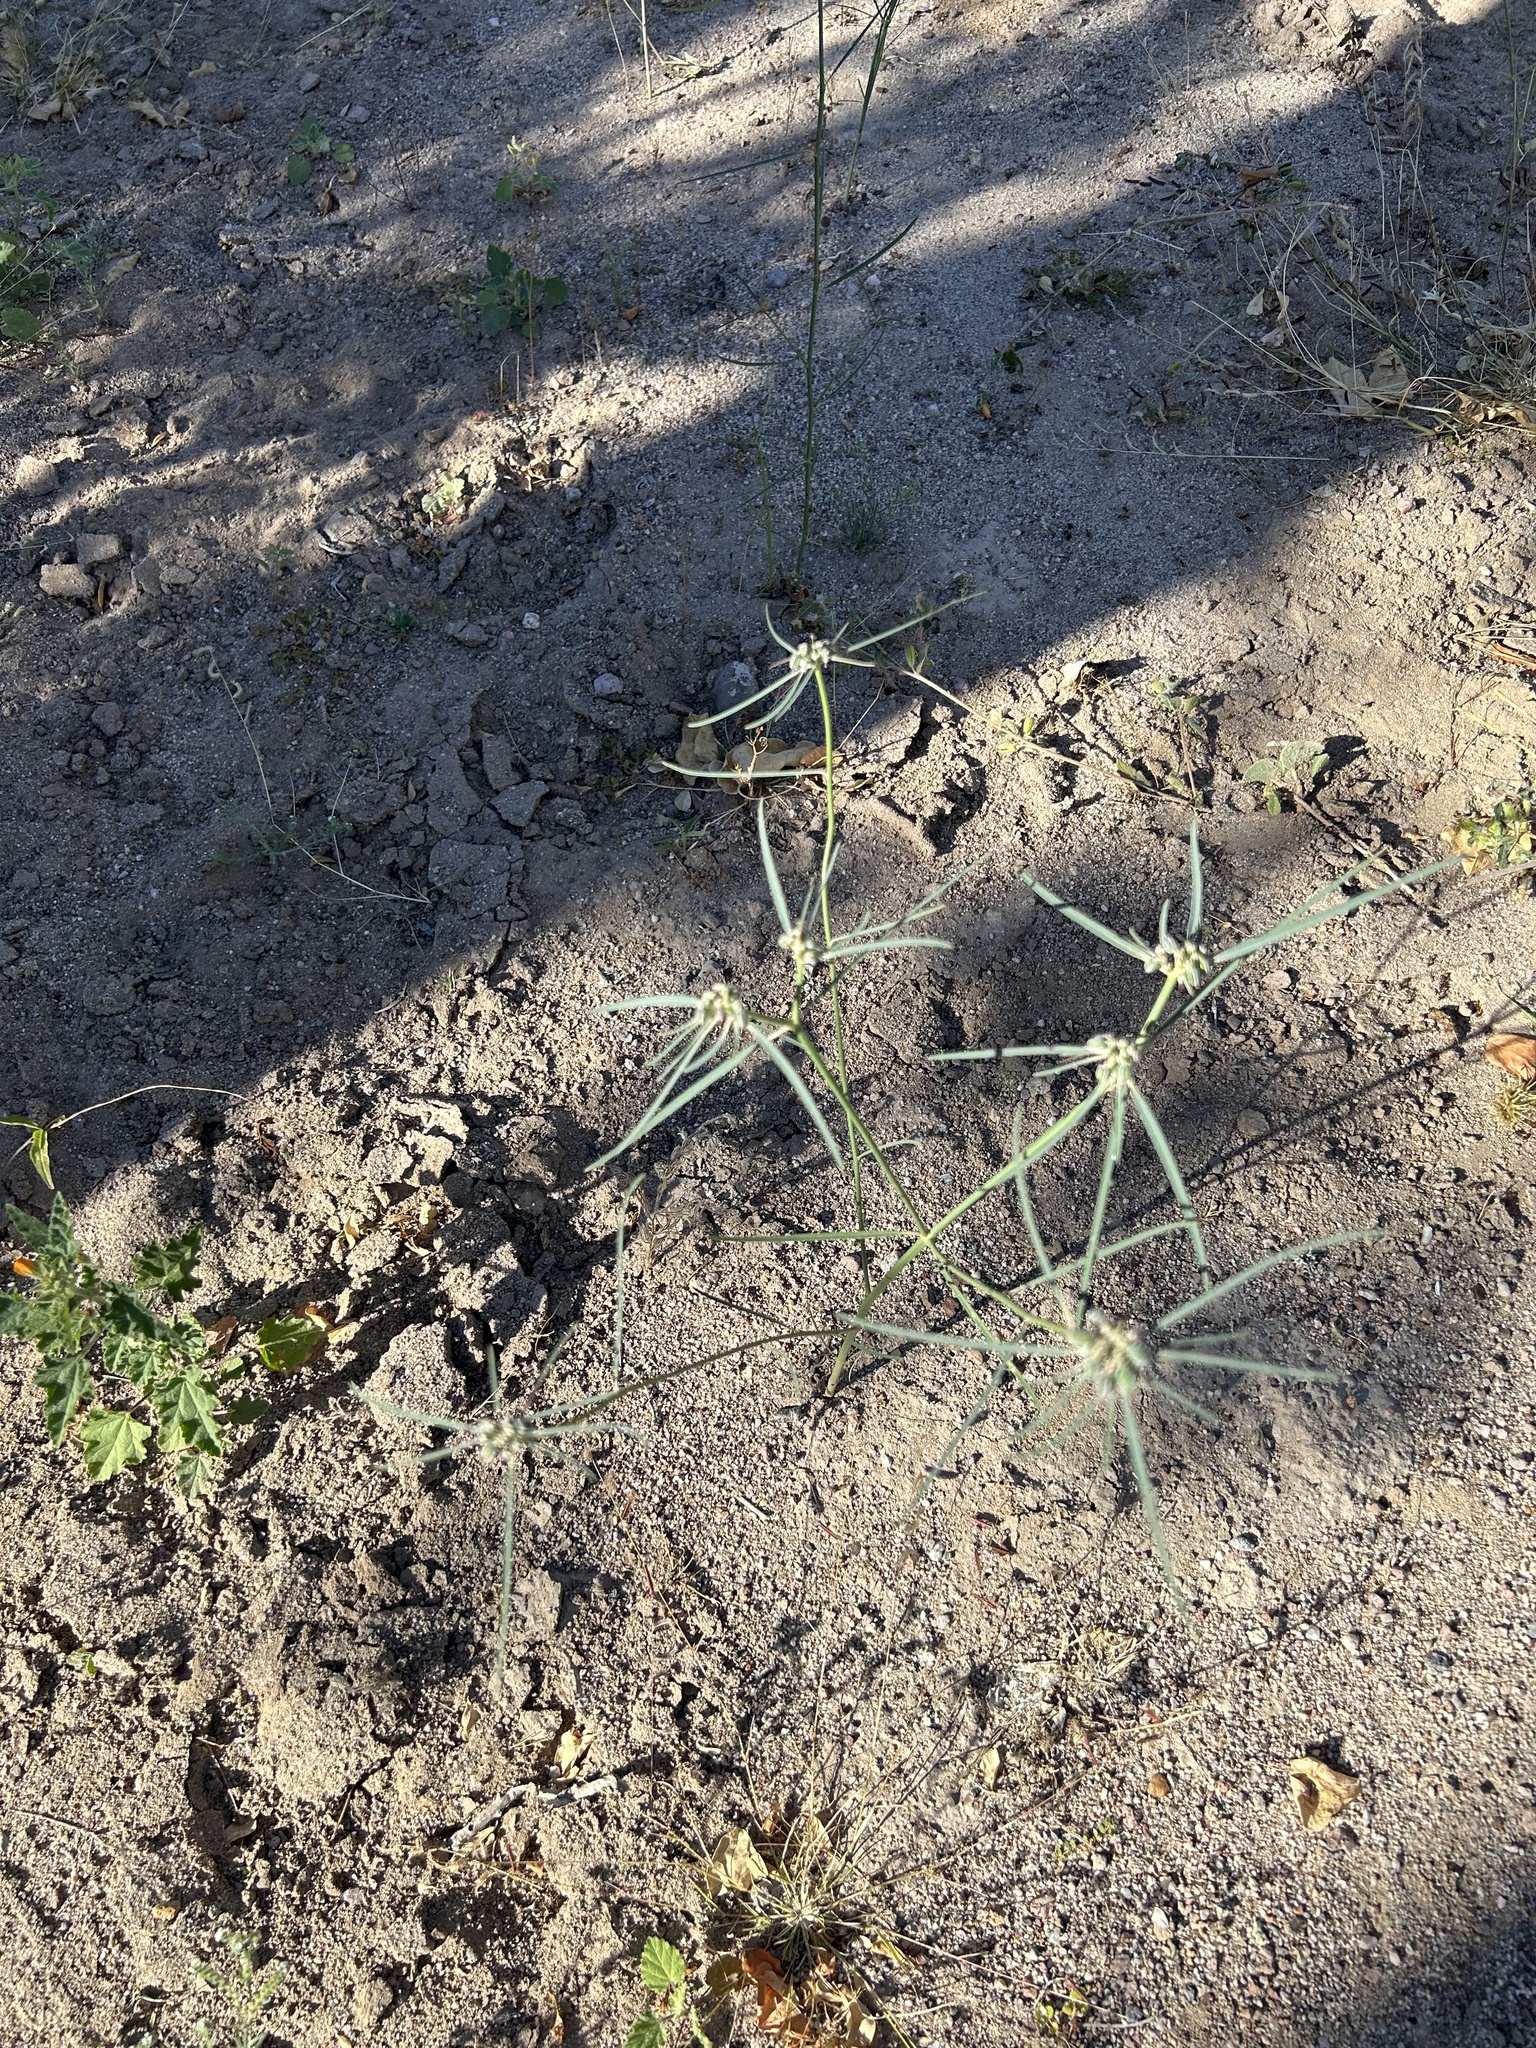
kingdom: Plantae
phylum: Tracheophyta
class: Magnoliopsida
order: Malpighiales
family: Euphorbiaceae
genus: Euphorbia
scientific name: Euphorbia eriantha
